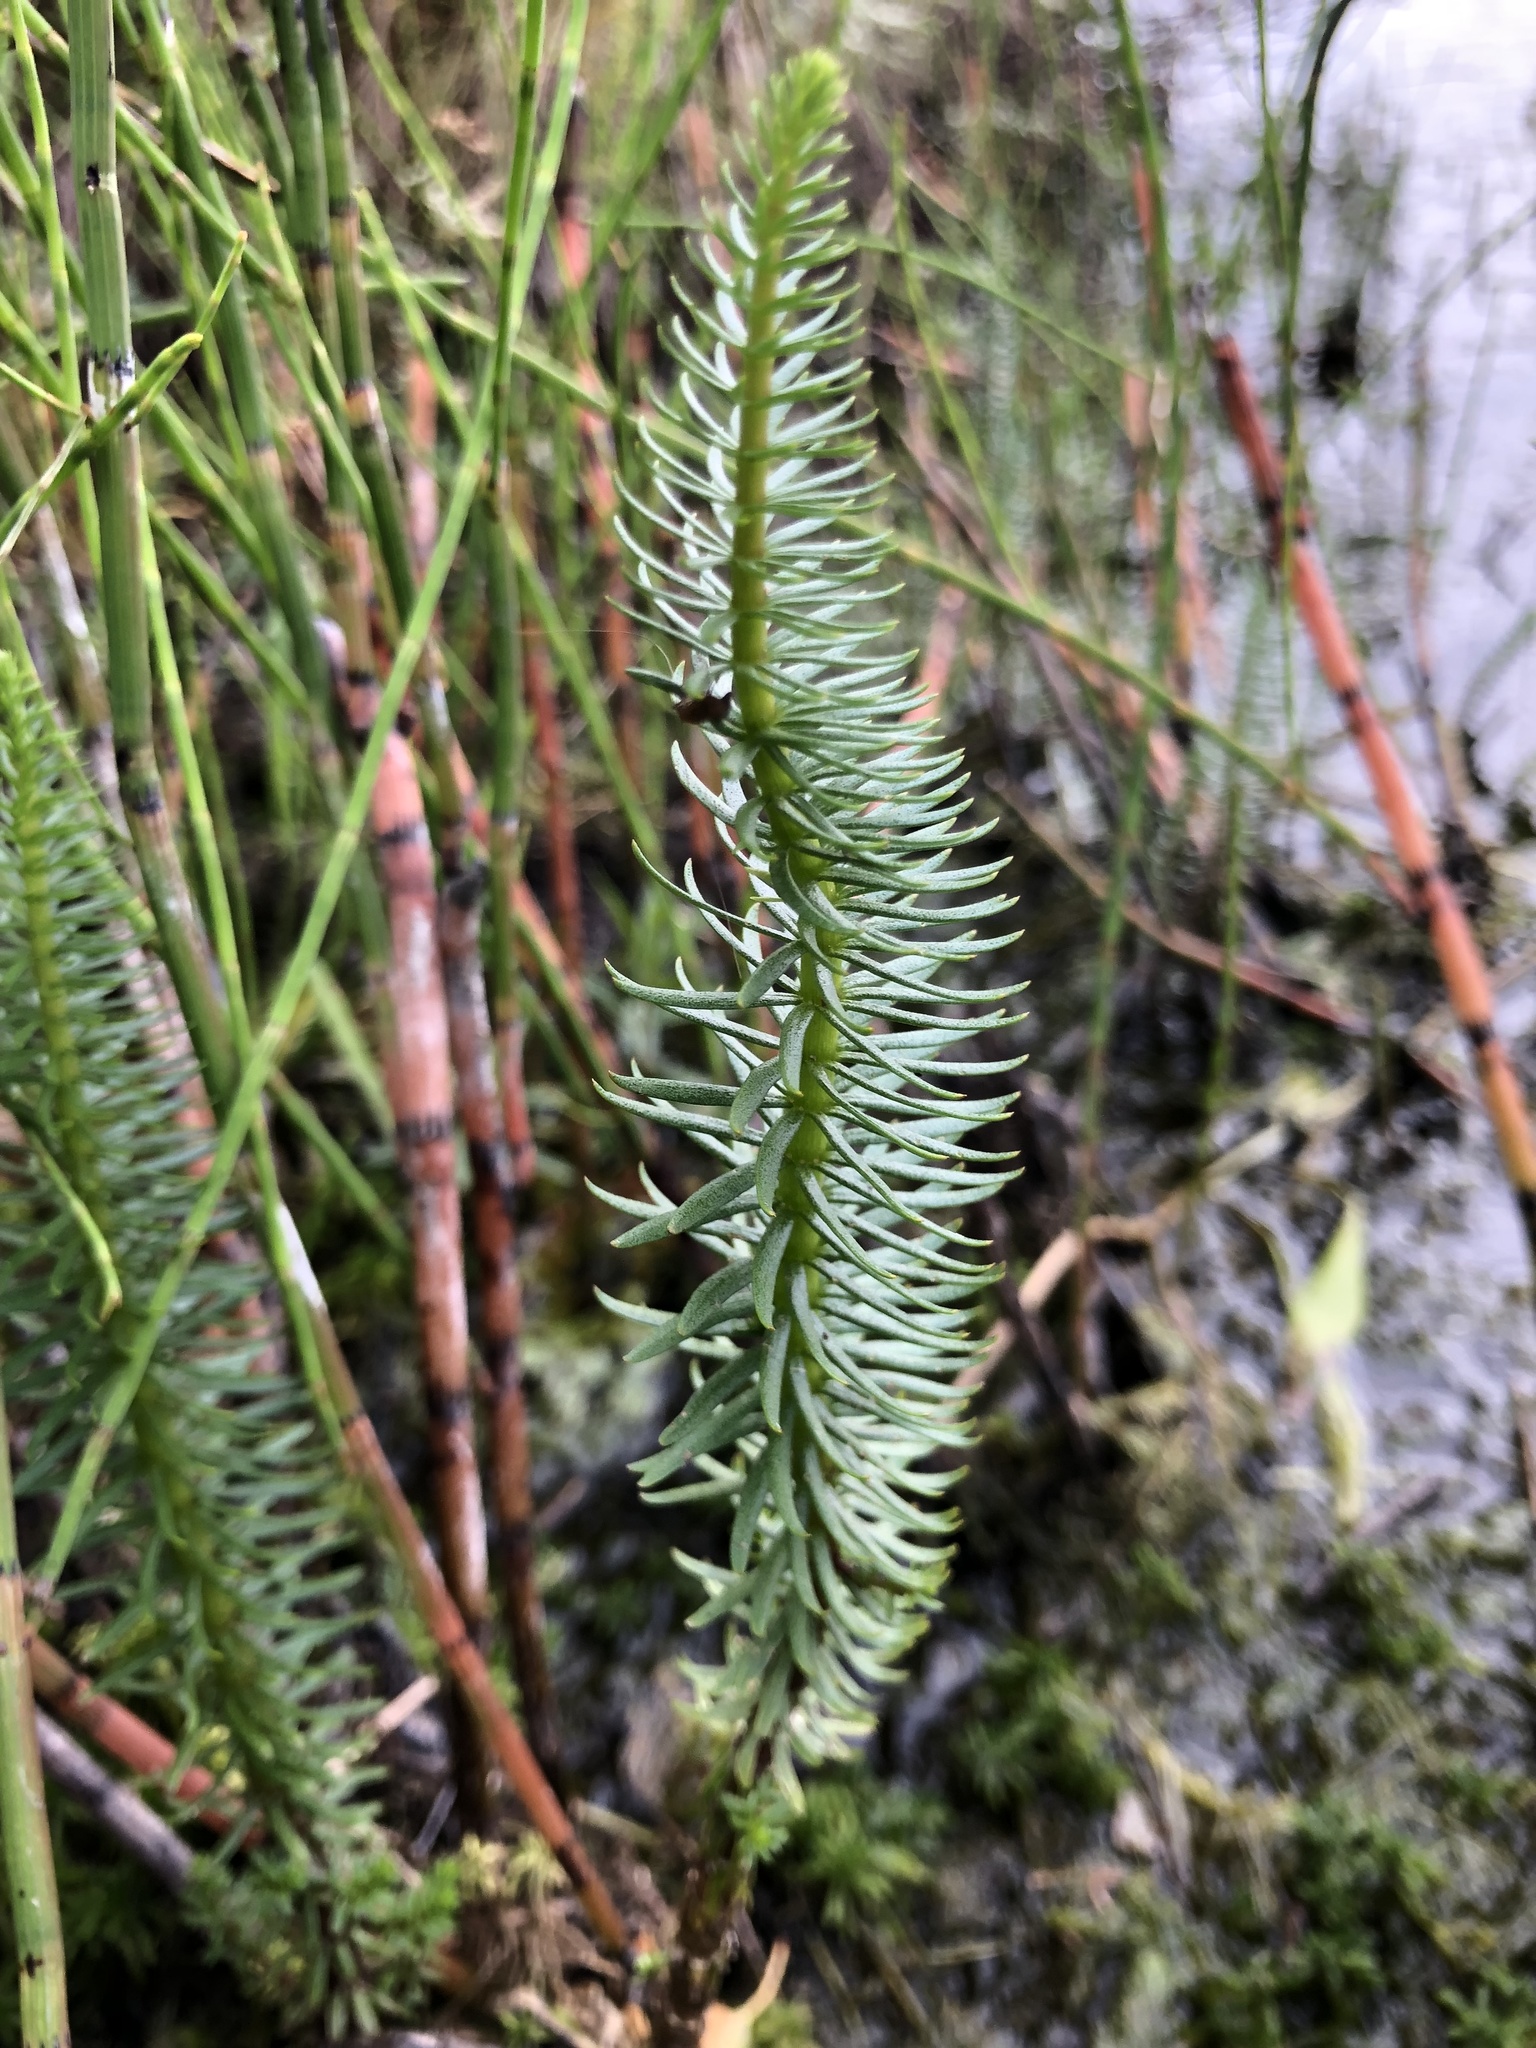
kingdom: Plantae
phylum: Tracheophyta
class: Magnoliopsida
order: Lamiales
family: Plantaginaceae
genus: Hippuris
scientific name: Hippuris vulgaris
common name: Mare's-tail
